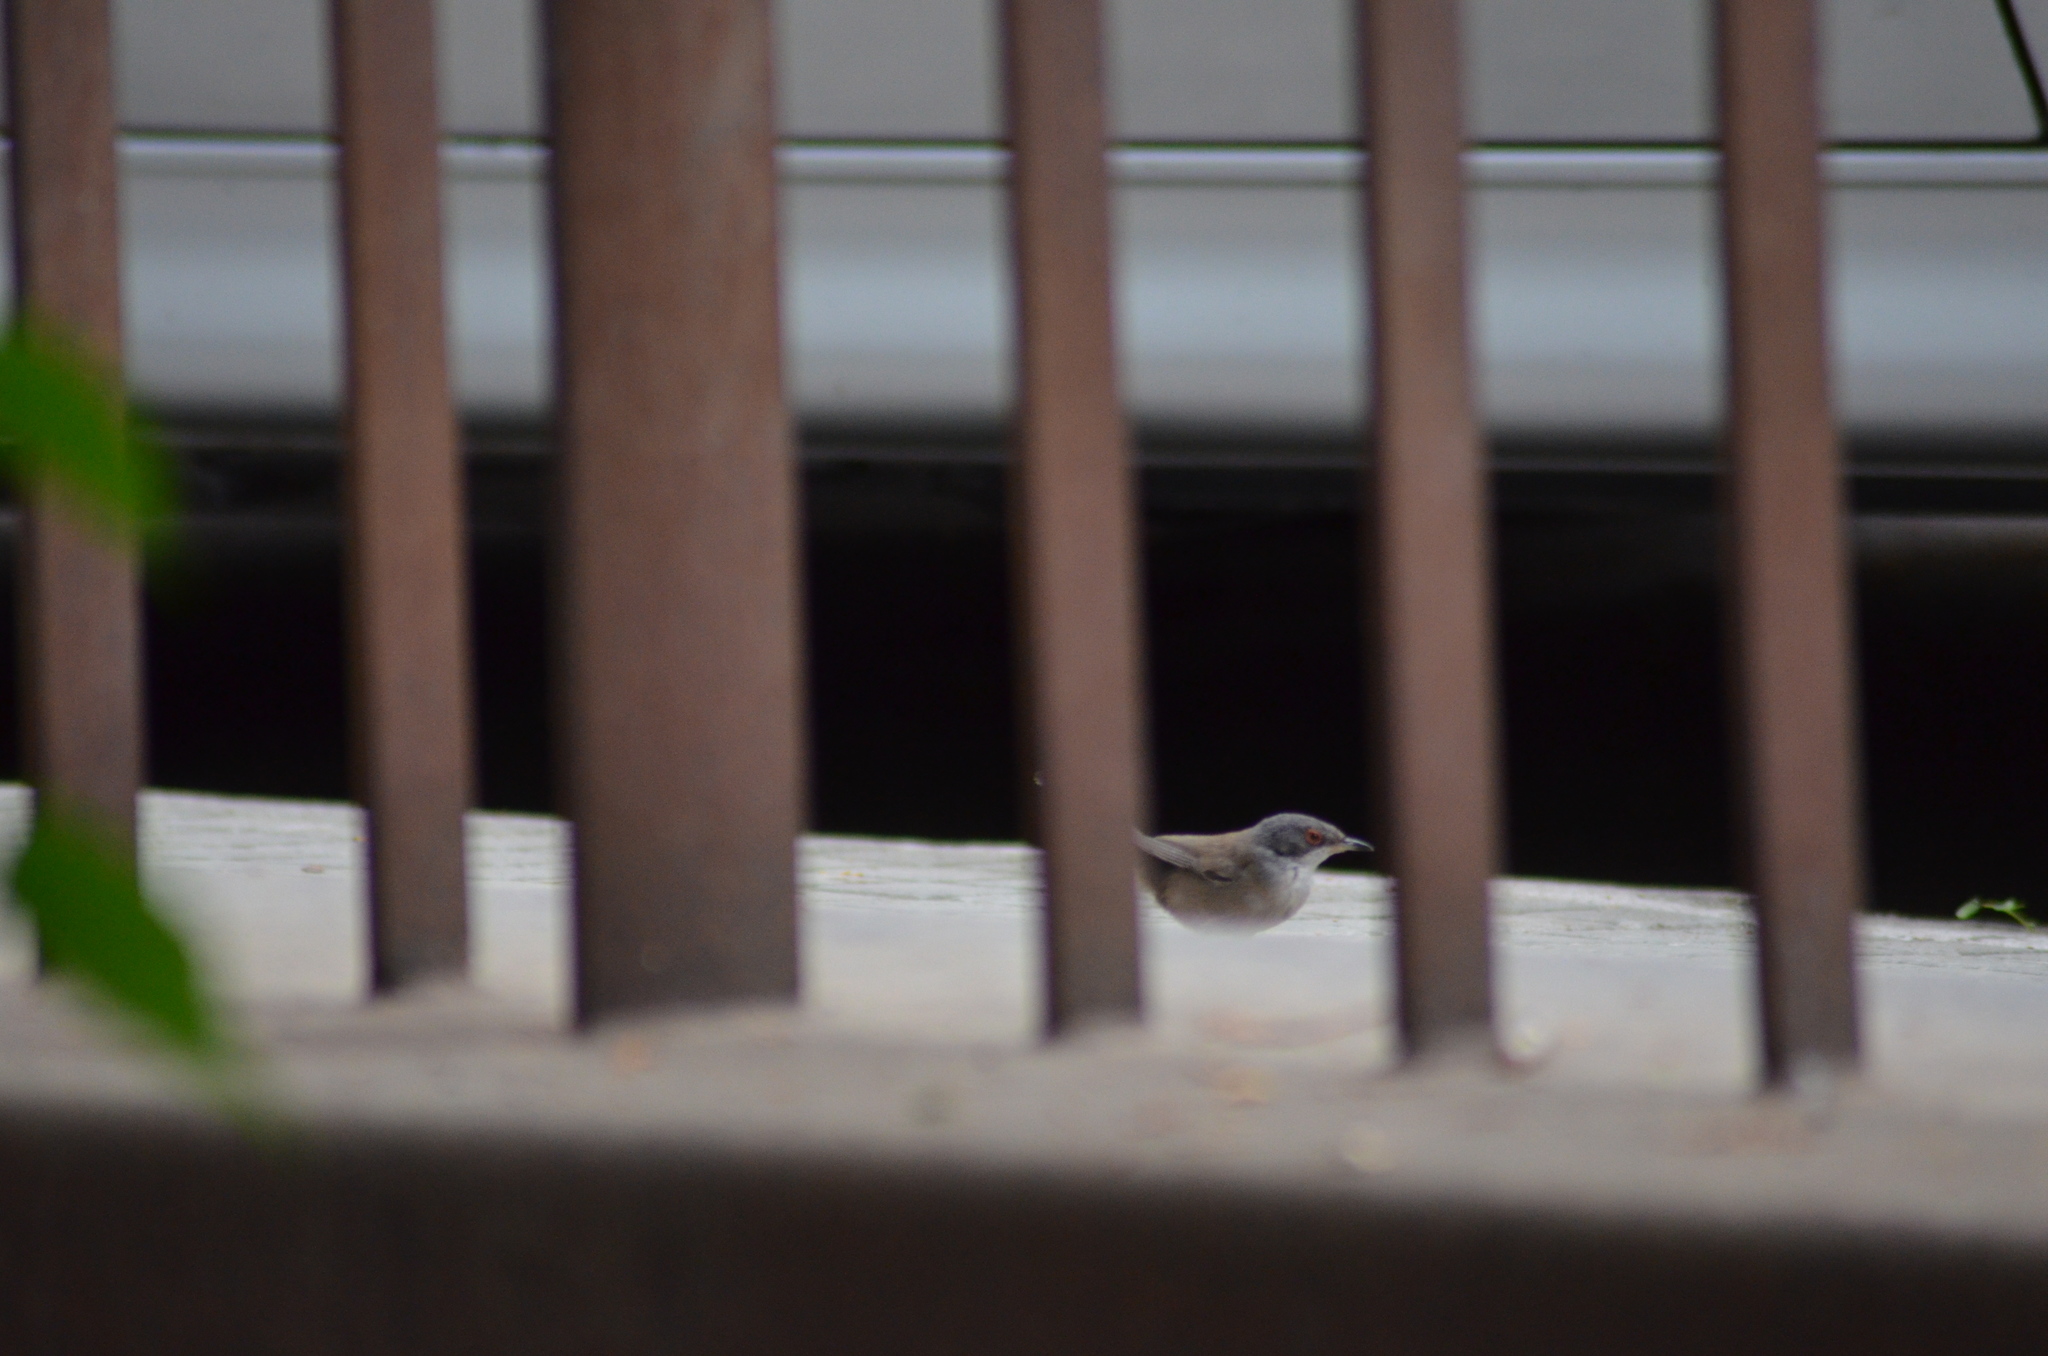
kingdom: Animalia
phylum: Chordata
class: Aves
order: Passeriformes
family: Sylviidae
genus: Curruca
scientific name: Curruca melanocephala
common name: Sardinian warbler
